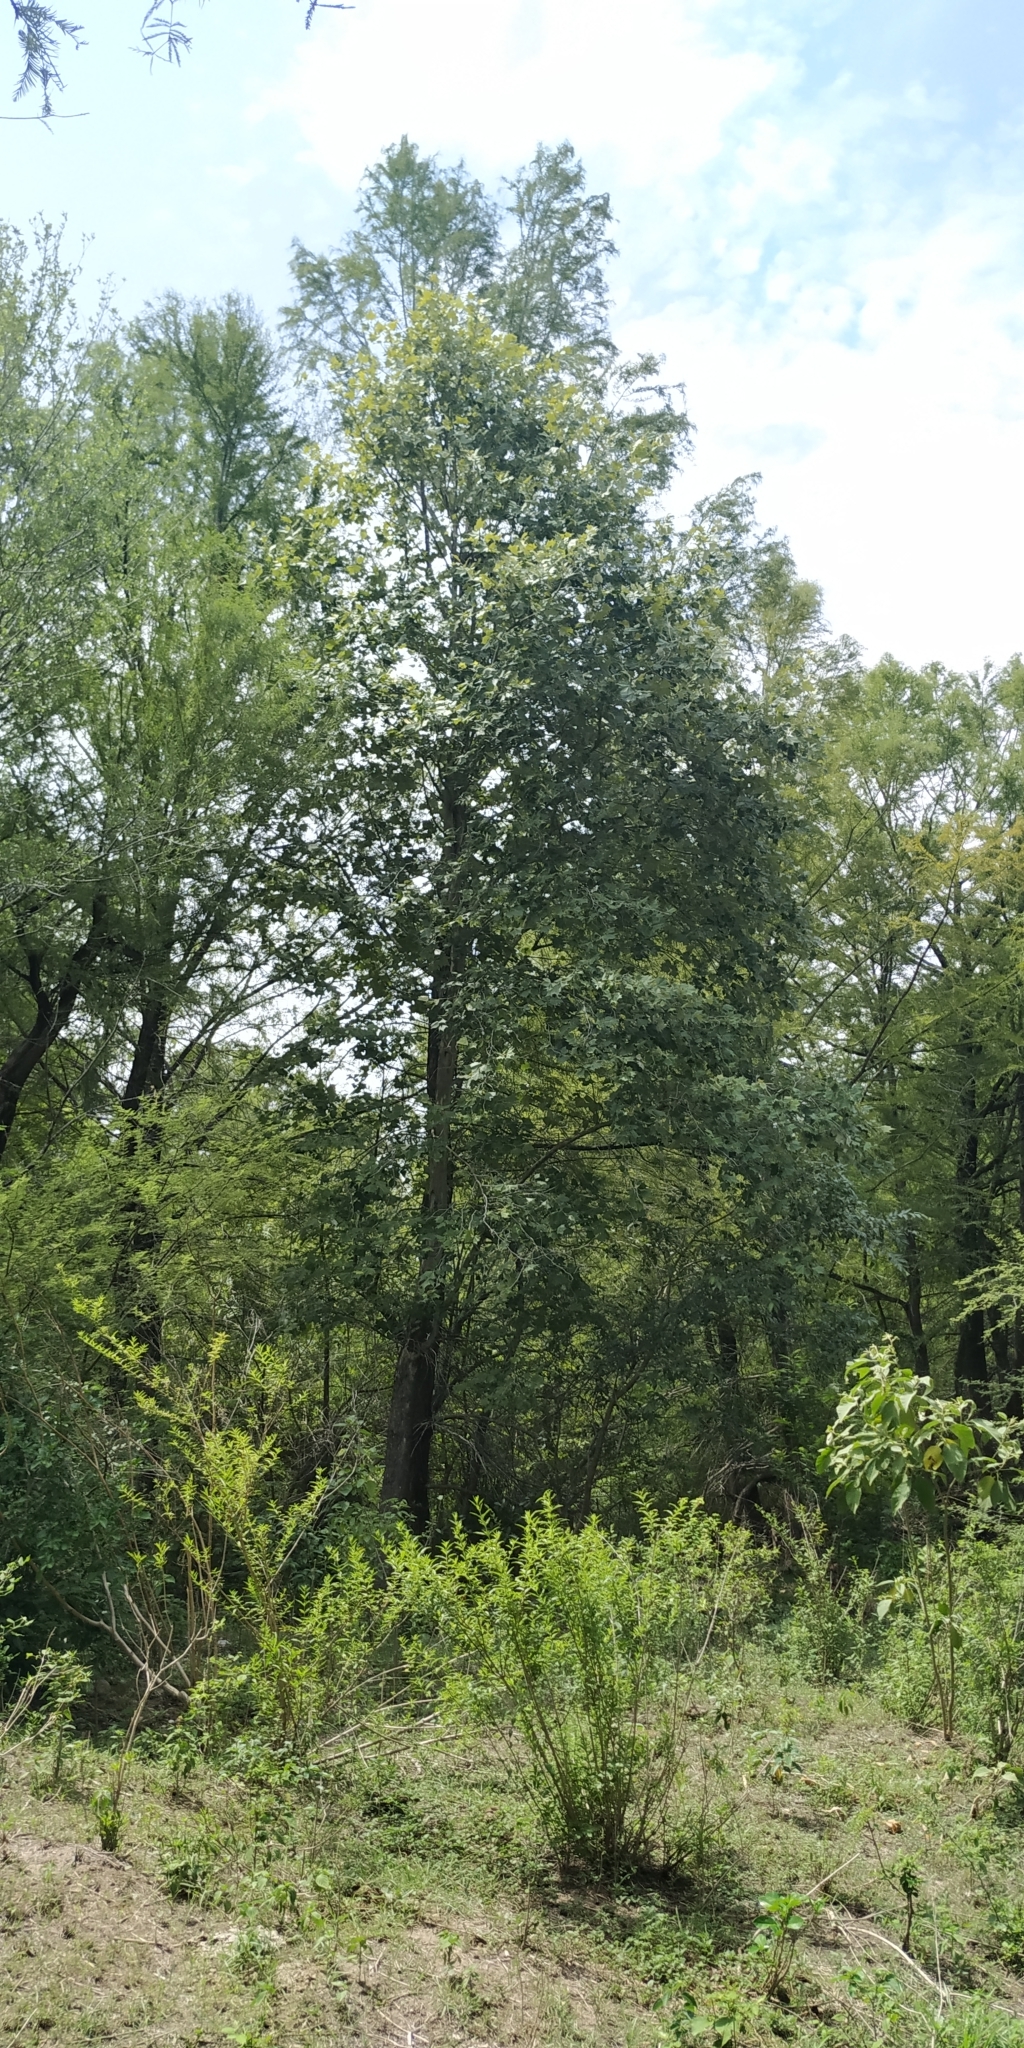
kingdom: Plantae
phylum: Tracheophyta
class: Magnoliopsida
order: Proteales
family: Platanaceae
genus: Platanus
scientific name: Platanus rzedowskii
